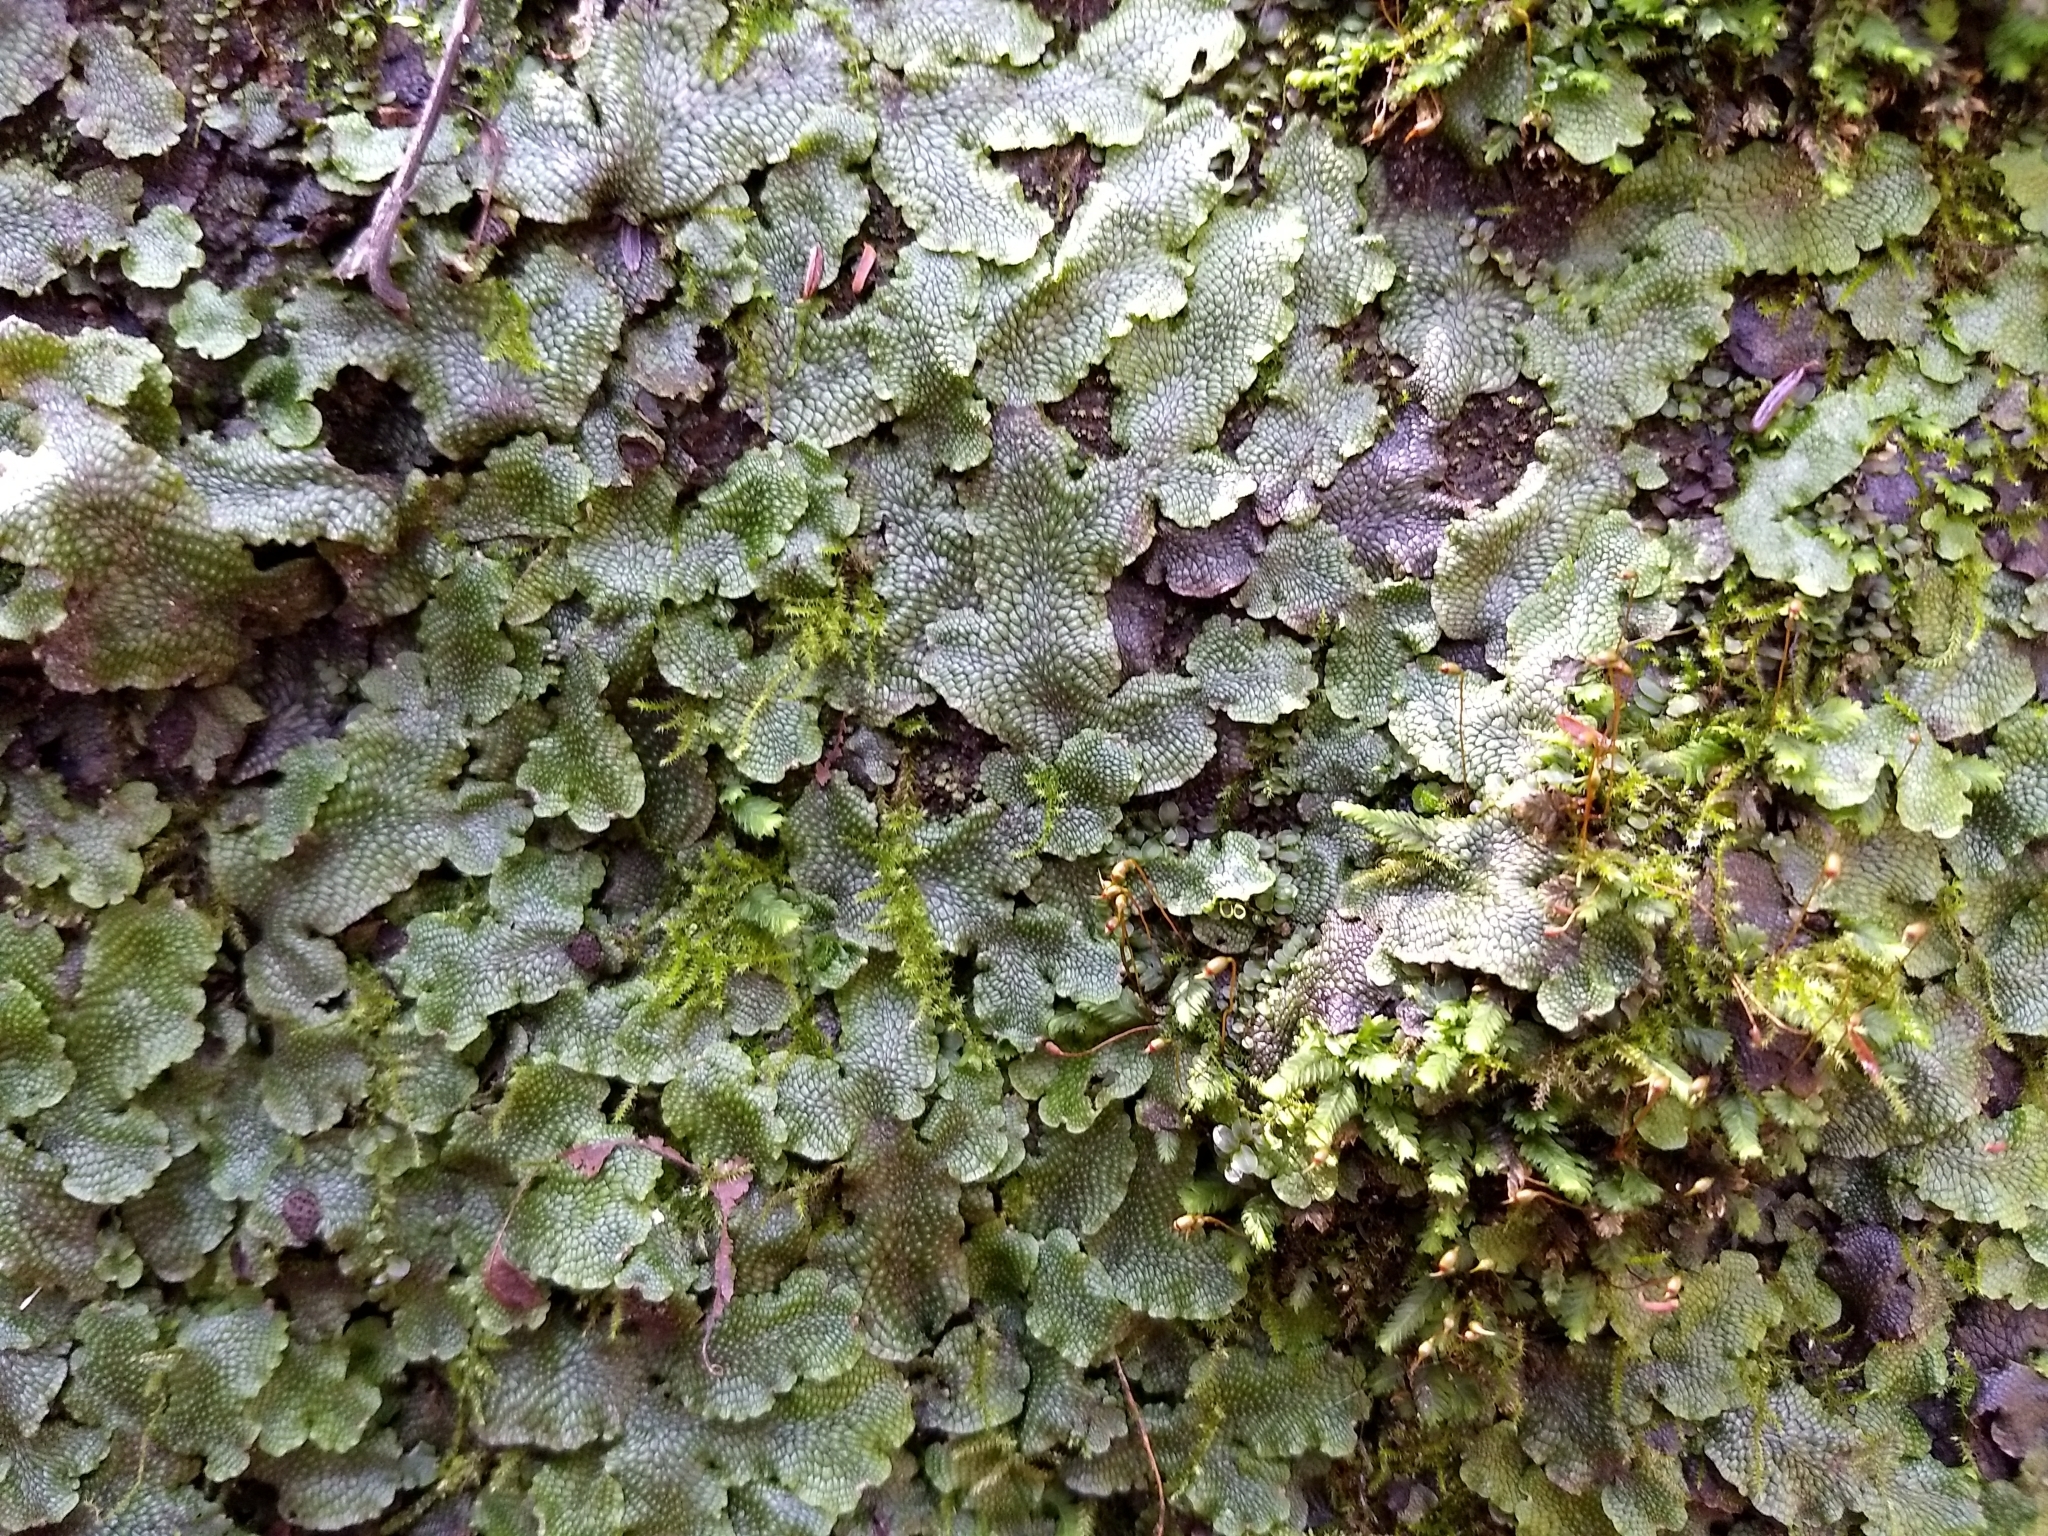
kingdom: Plantae
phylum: Marchantiophyta
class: Marchantiopsida
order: Marchantiales
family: Conocephalaceae
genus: Conocephalum
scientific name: Conocephalum salebrosum
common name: Cat-tongue liverwort
